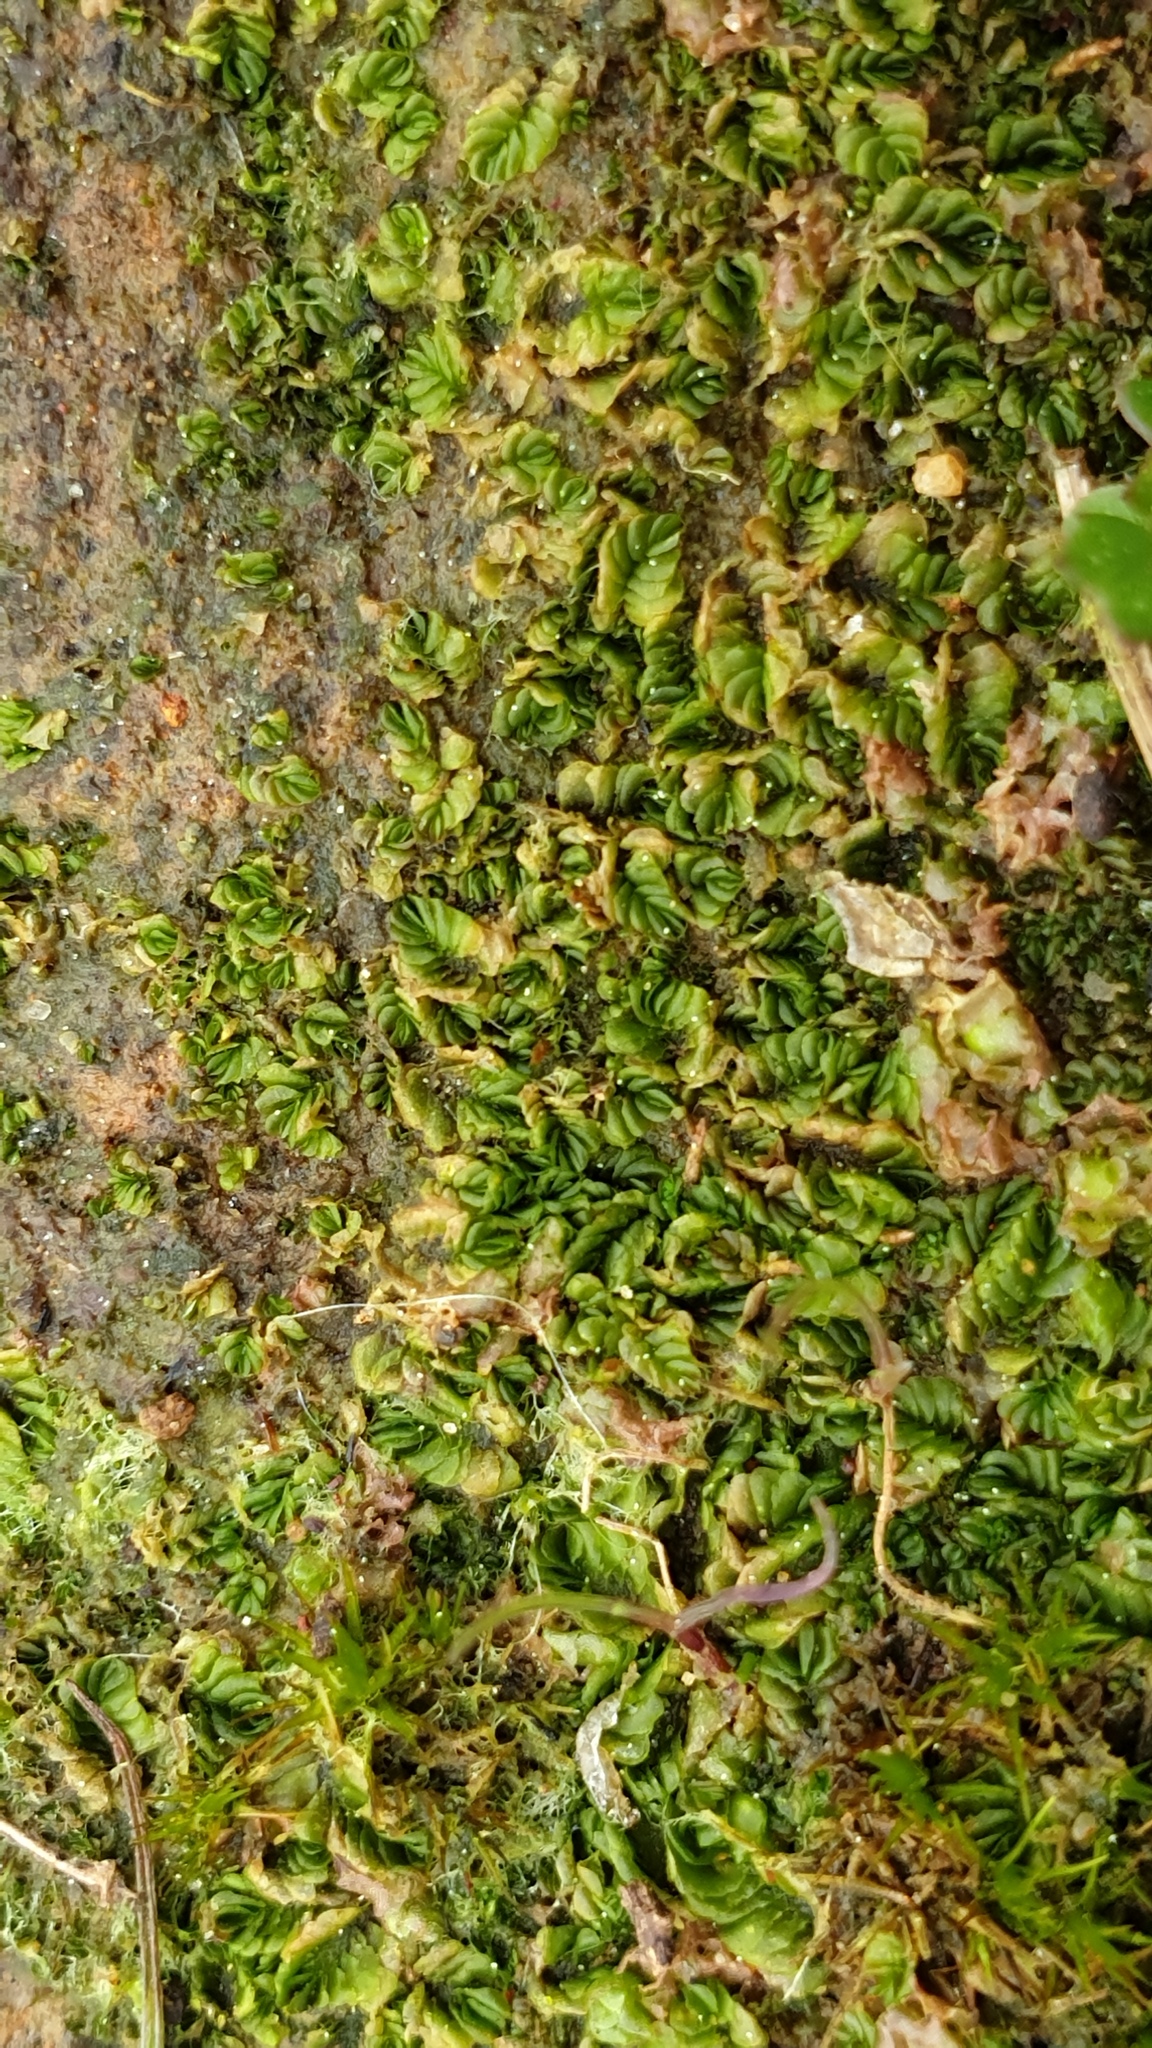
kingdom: Plantae
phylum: Marchantiophyta
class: Jungermanniopsida
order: Jungermanniales
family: Acrobolbaceae
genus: Lethocolea
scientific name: Lethocolea pansa
